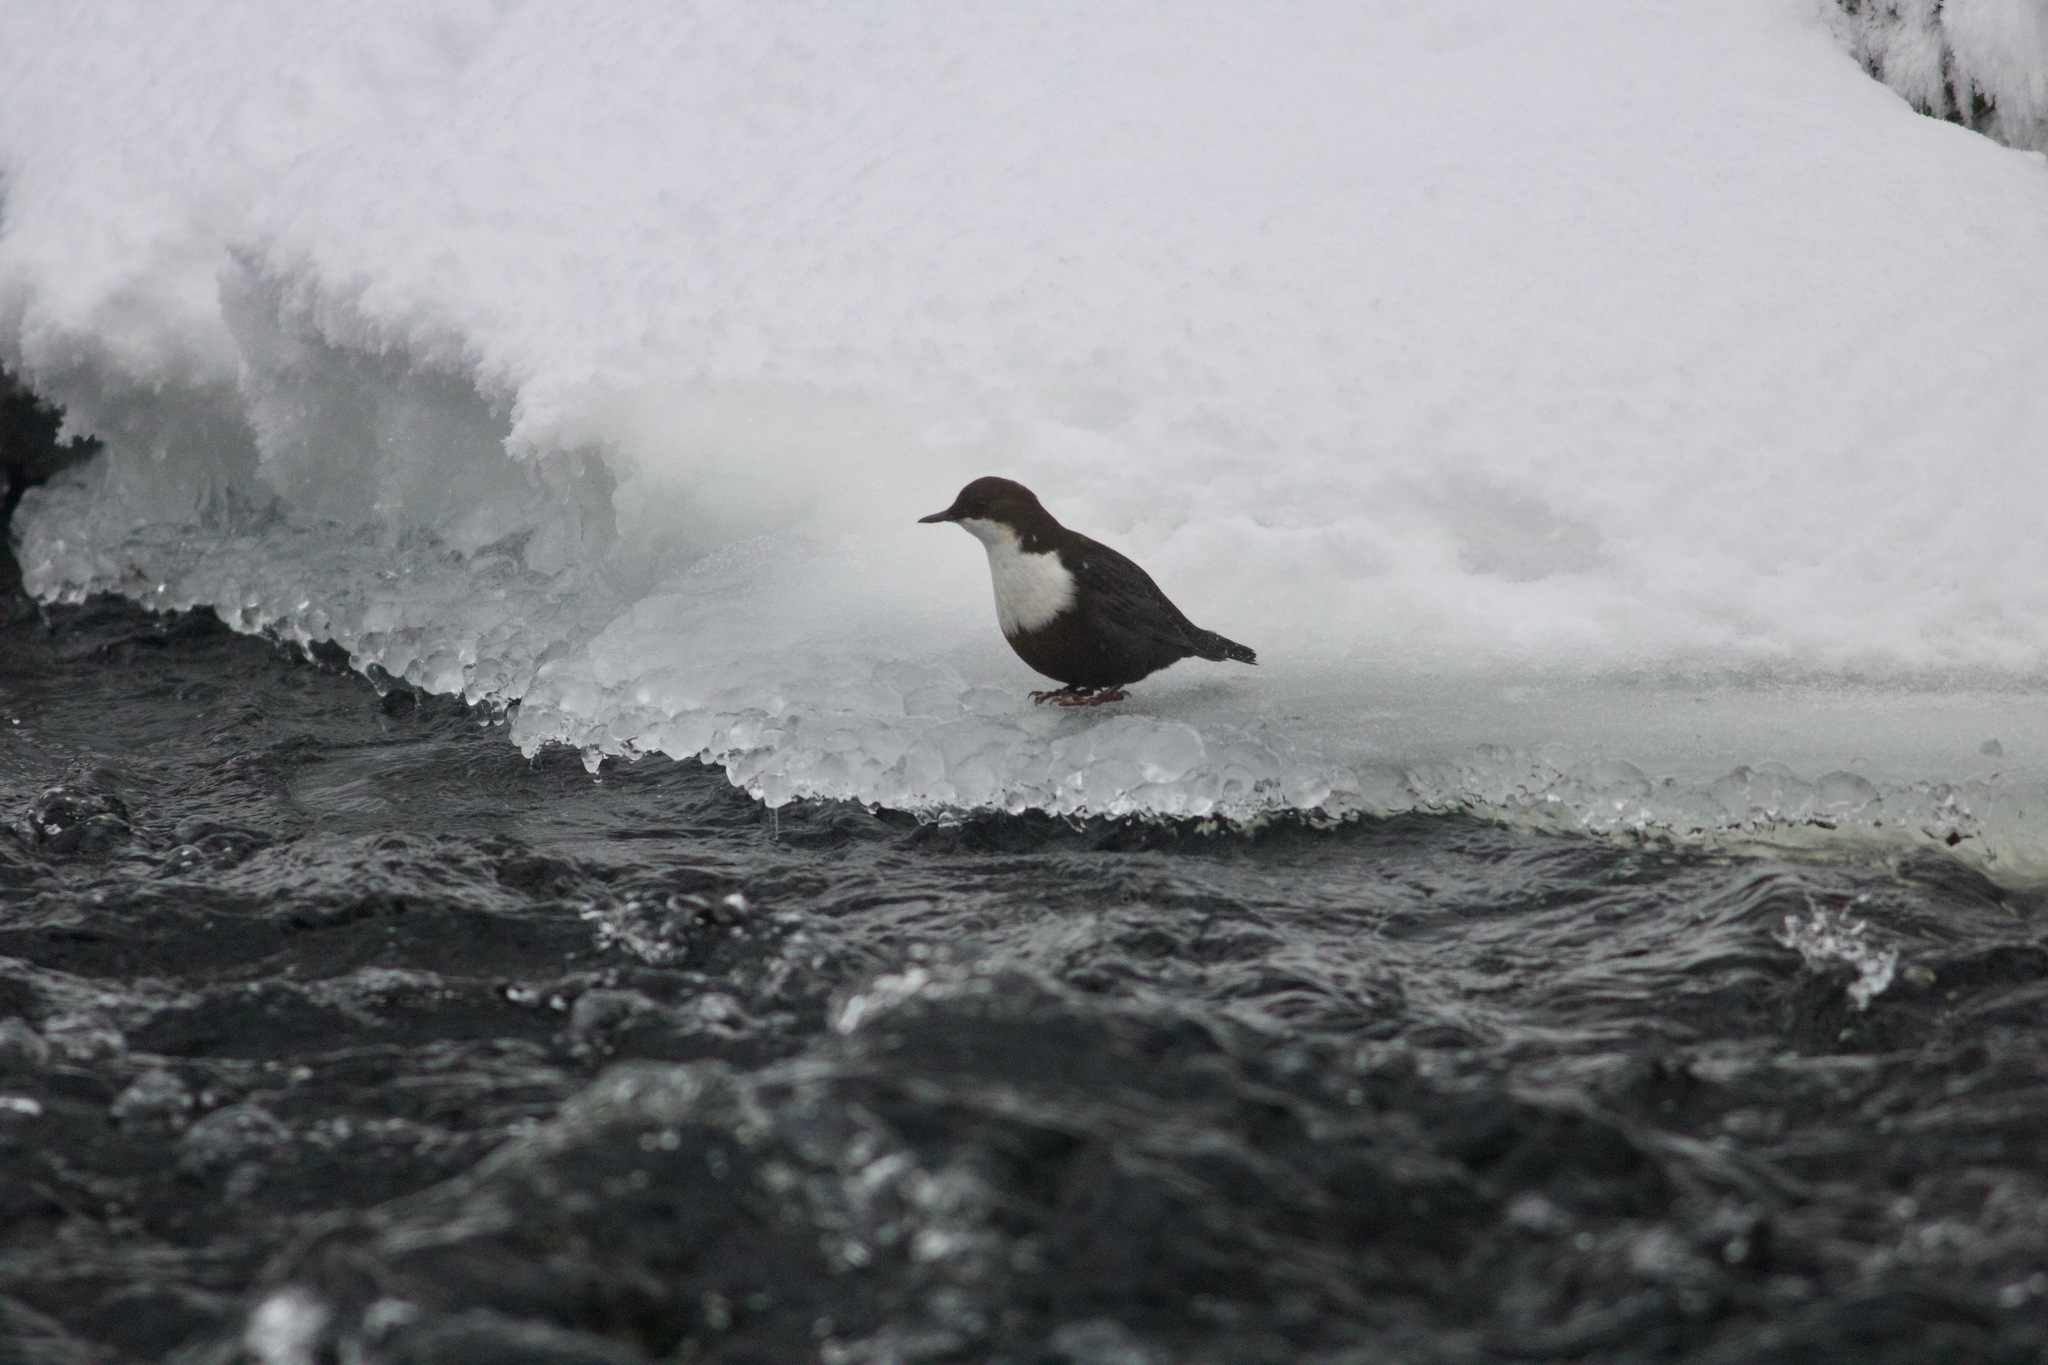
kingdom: Animalia
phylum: Chordata
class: Aves
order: Passeriformes
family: Cinclidae
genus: Cinclus
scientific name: Cinclus cinclus
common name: White-throated dipper
